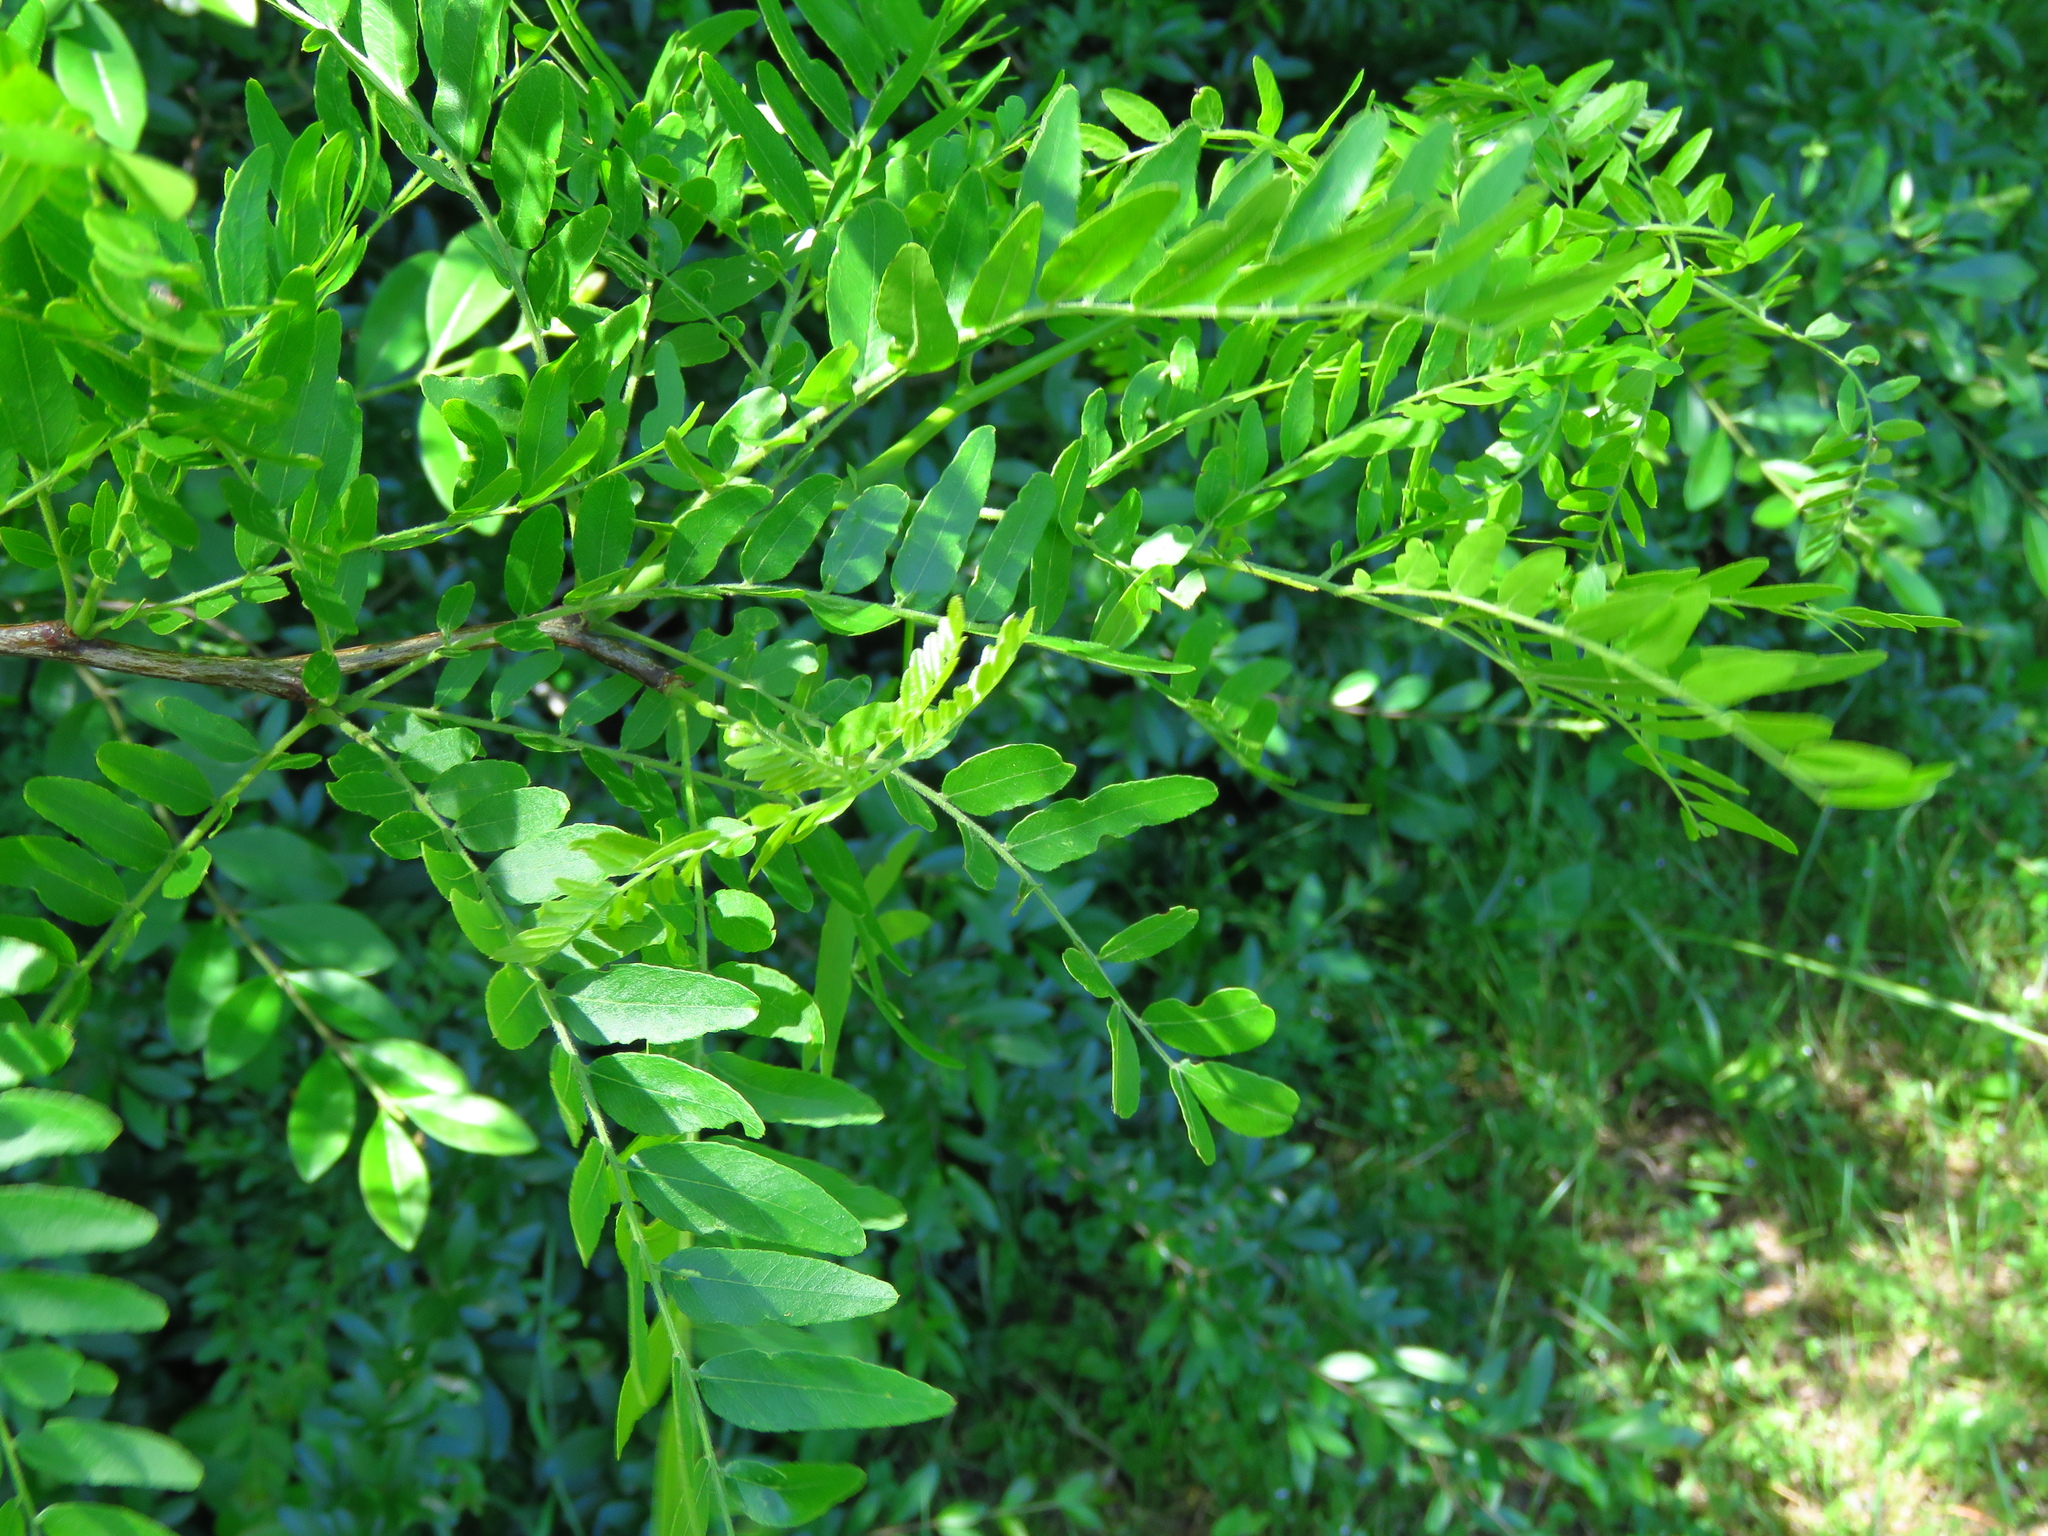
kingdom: Plantae
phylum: Tracheophyta
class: Magnoliopsida
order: Fabales
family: Fabaceae
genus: Gleditsia
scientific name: Gleditsia triacanthos
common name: Common honeylocust
